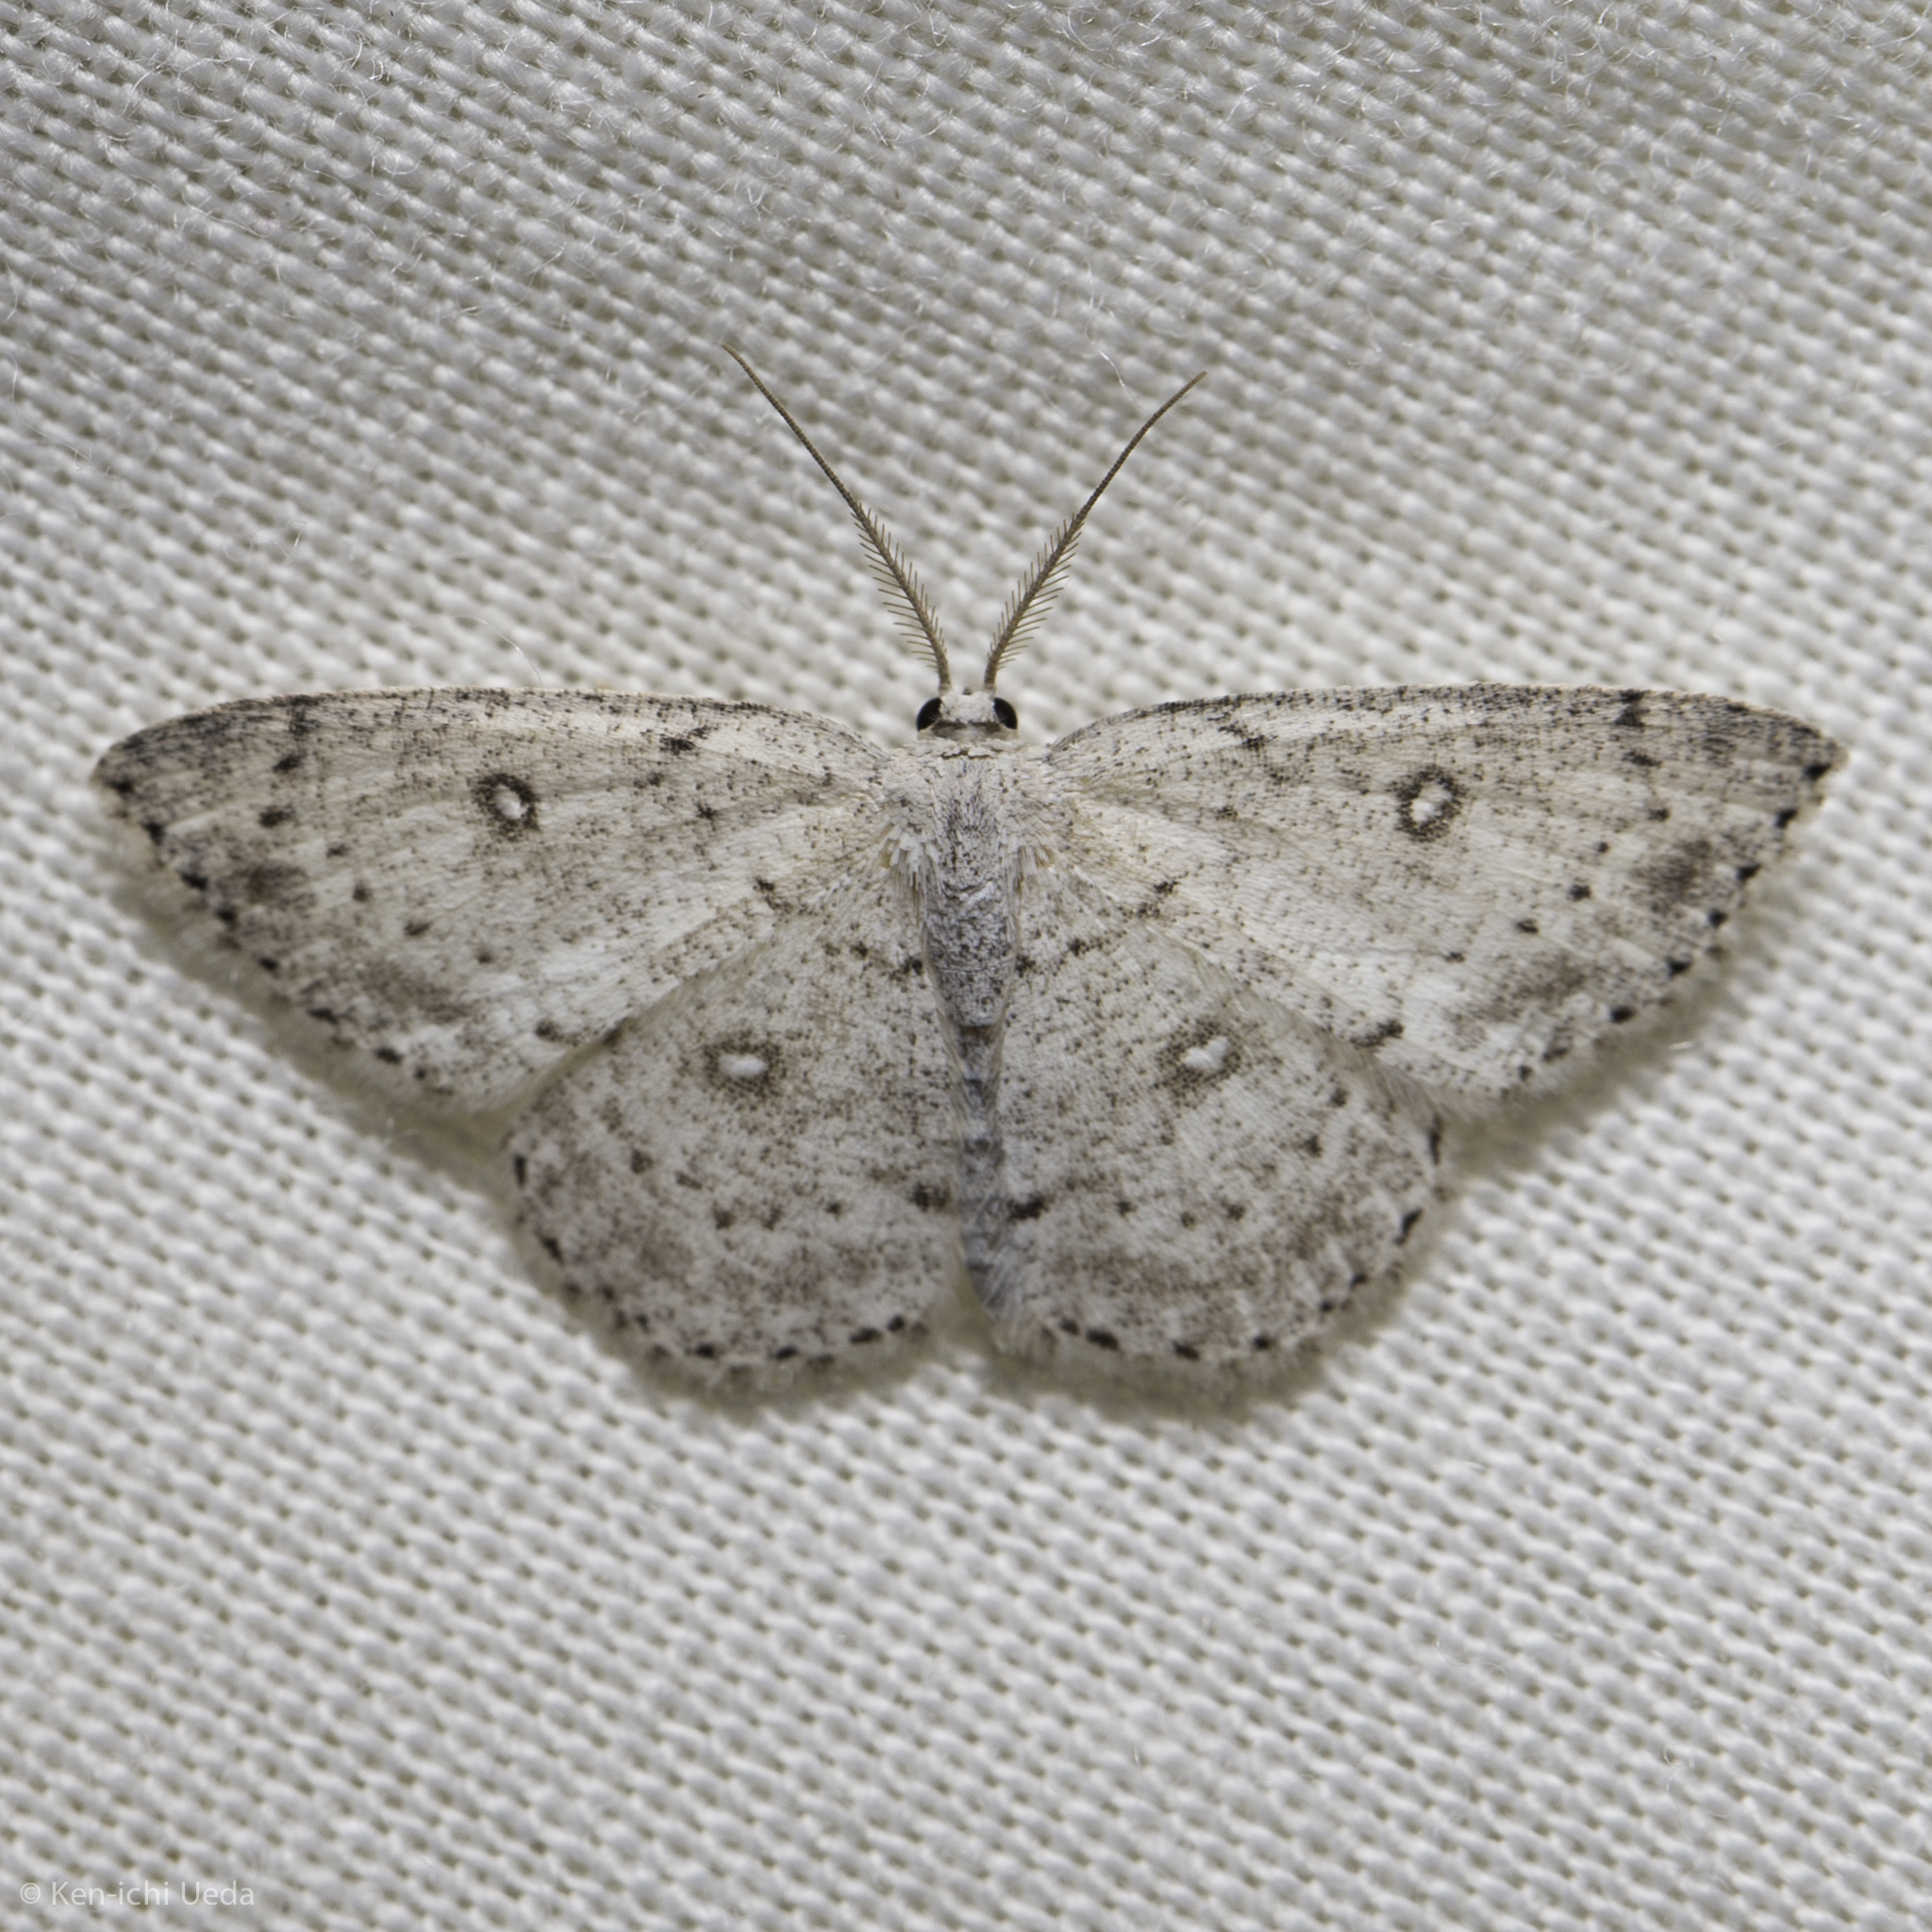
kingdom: Animalia
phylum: Arthropoda
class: Insecta
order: Lepidoptera
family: Geometridae
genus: Cyclophora
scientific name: Cyclophora pendulinaria
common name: Sweet fern geometer
